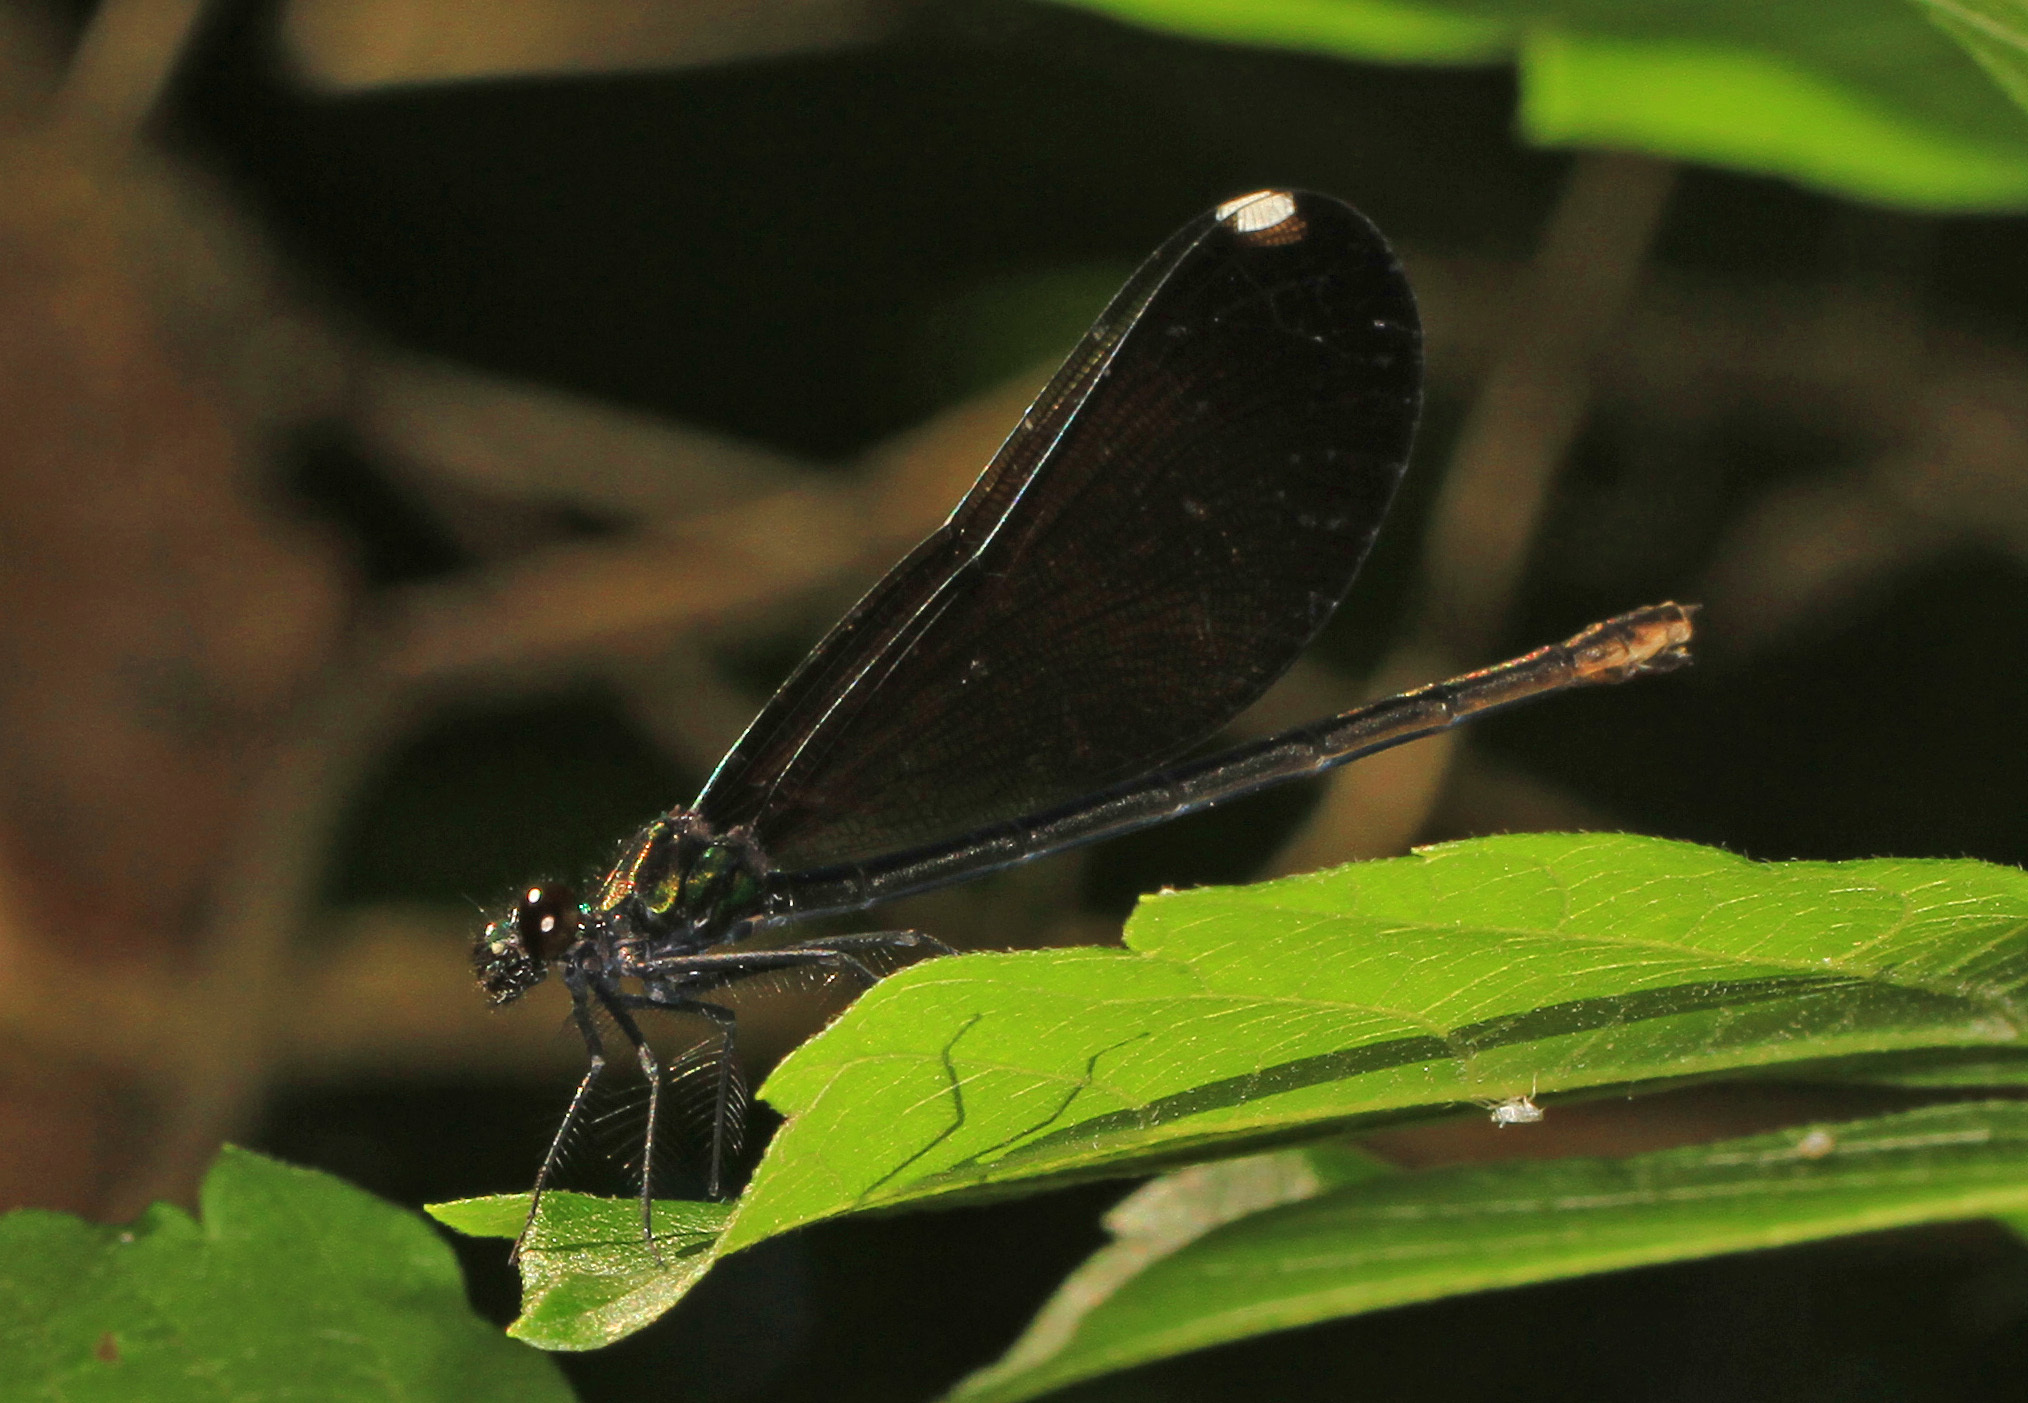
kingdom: Animalia
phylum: Arthropoda
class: Insecta
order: Odonata
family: Calopterygidae
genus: Calopteryx
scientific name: Calopteryx maculata
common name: Ebony jewelwing
